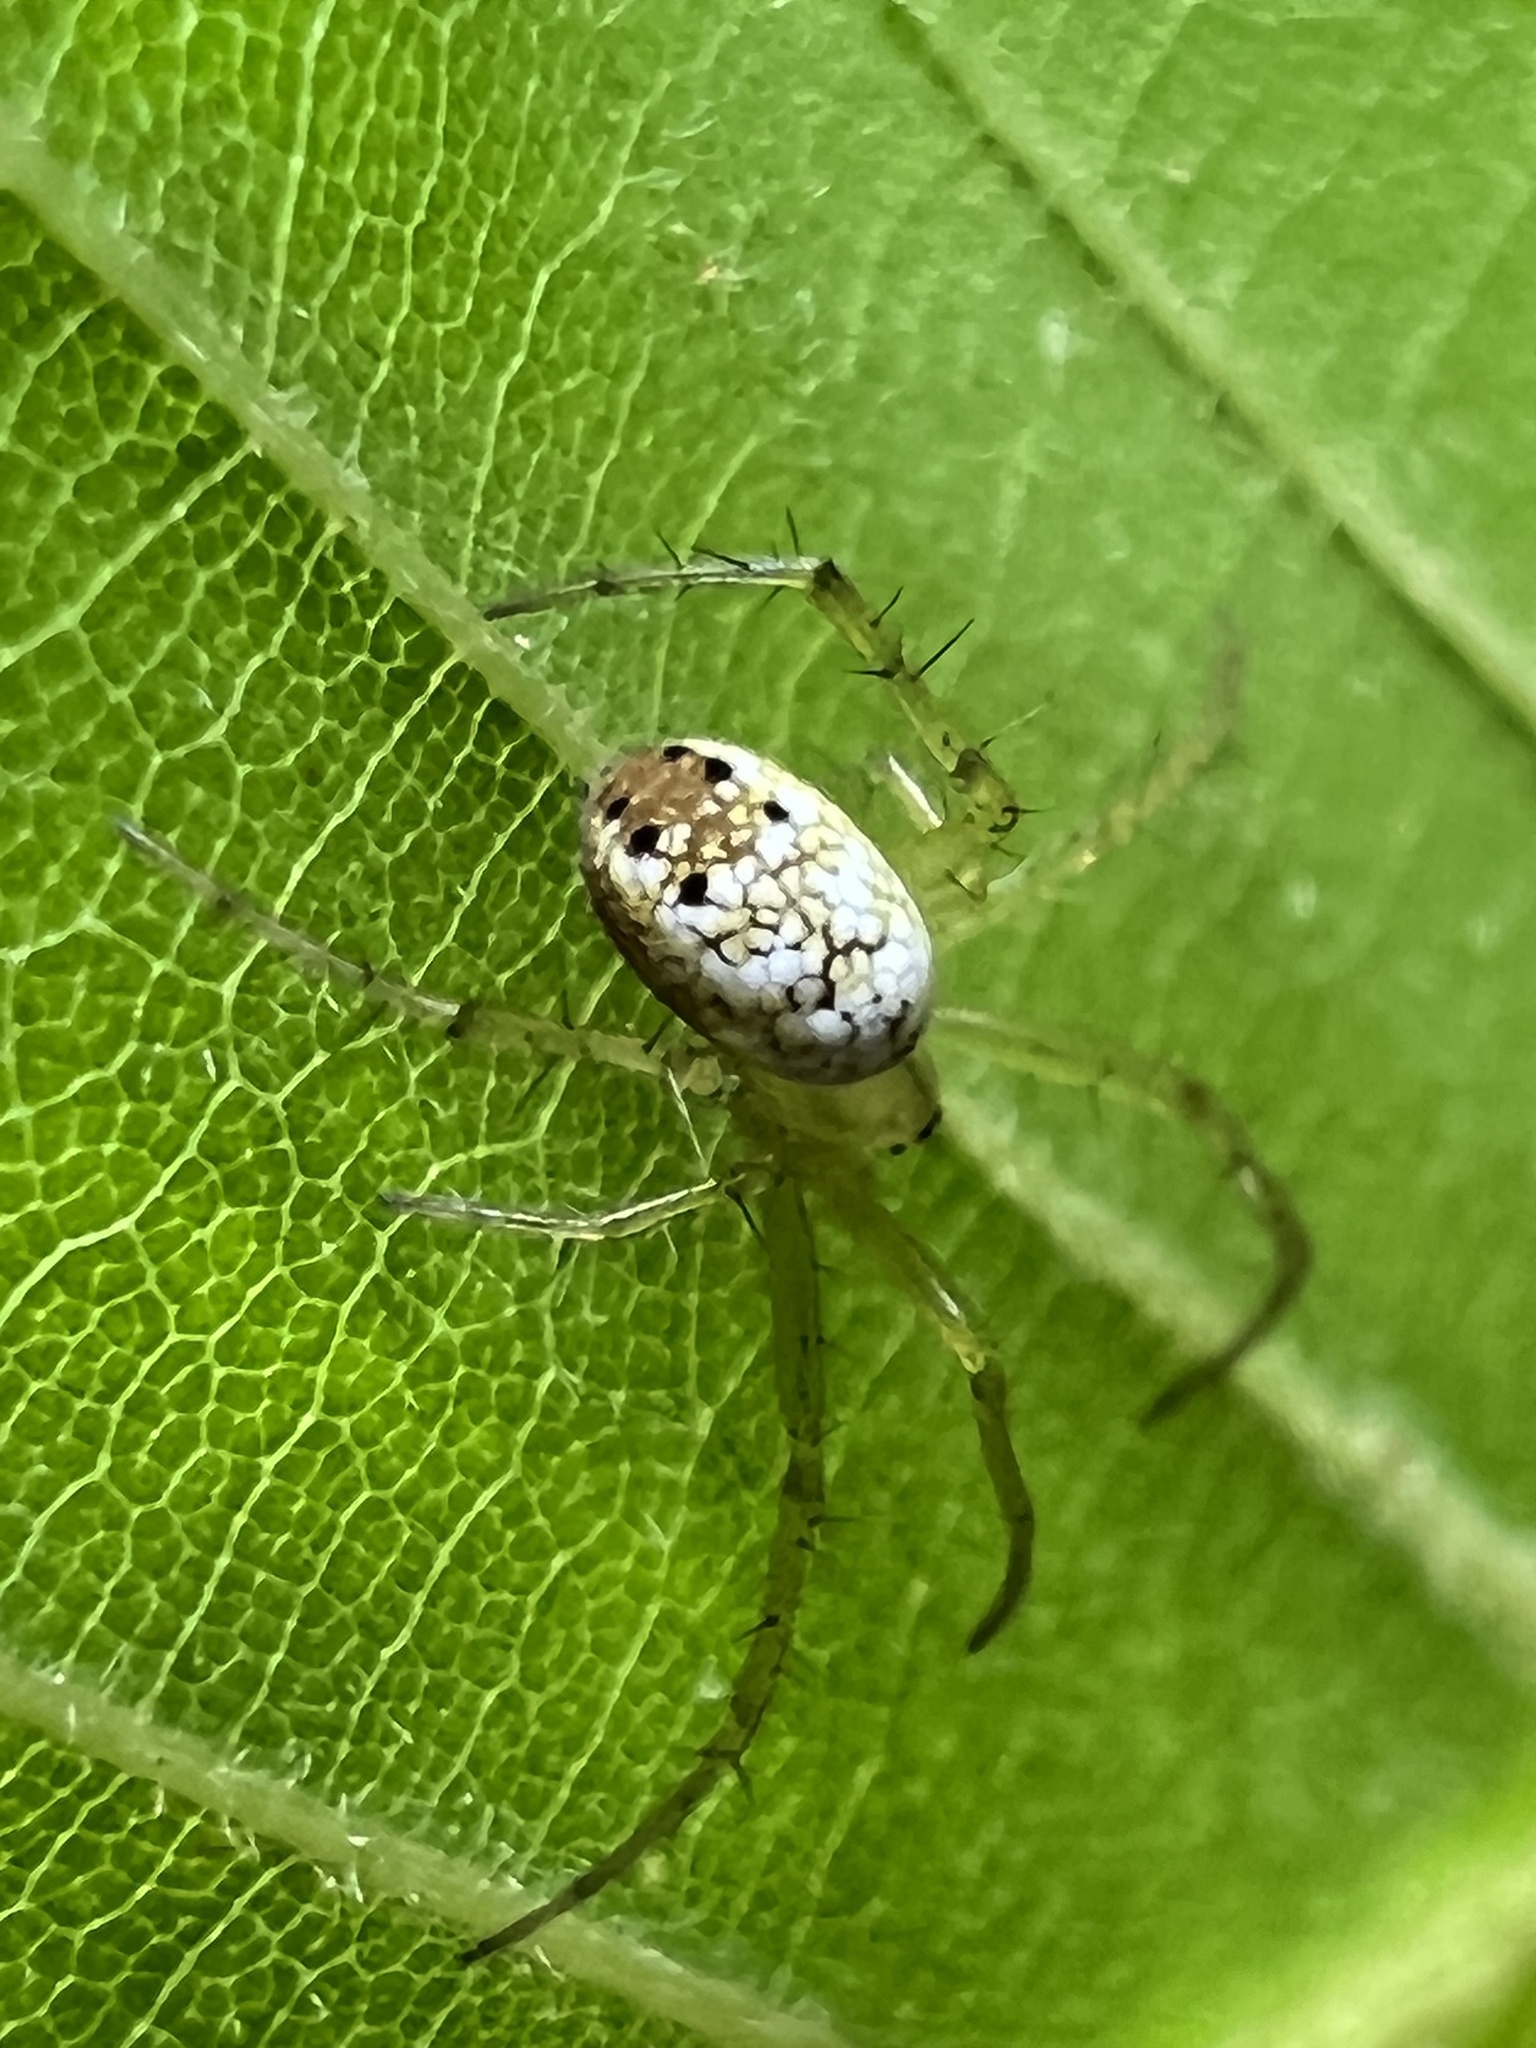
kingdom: Animalia
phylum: Arthropoda
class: Arachnida
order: Araneae
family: Araneidae
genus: Mangora
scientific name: Mangora maculata
